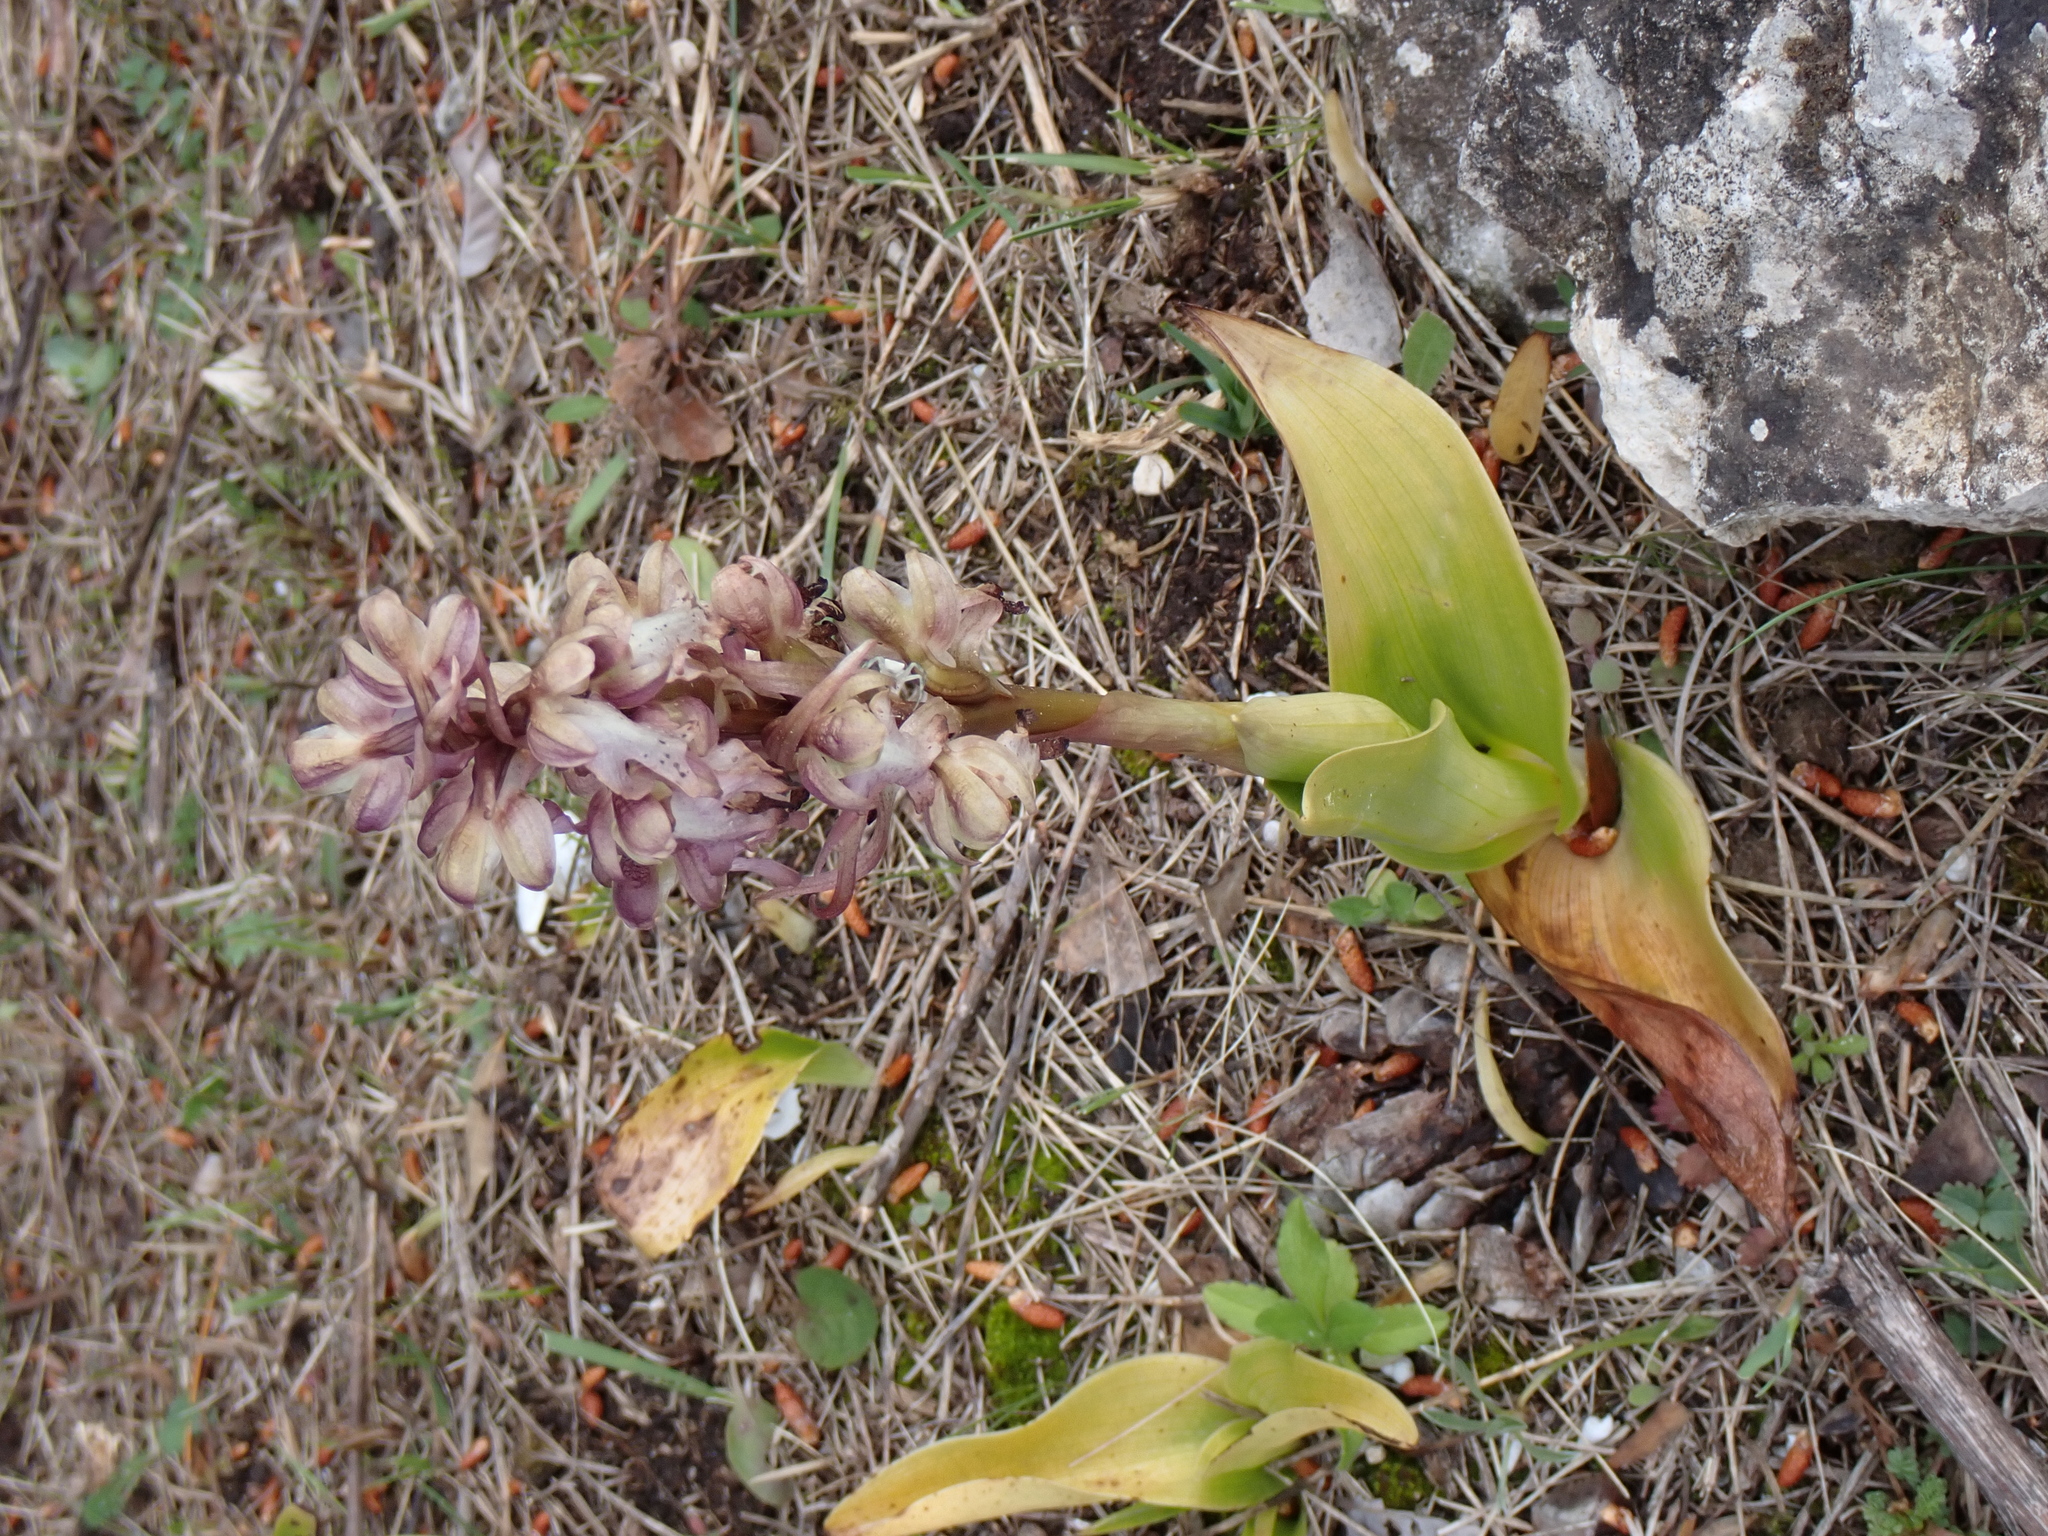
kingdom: Plantae
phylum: Tracheophyta
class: Liliopsida
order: Asparagales
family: Orchidaceae
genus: Himantoglossum
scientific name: Himantoglossum robertianum
